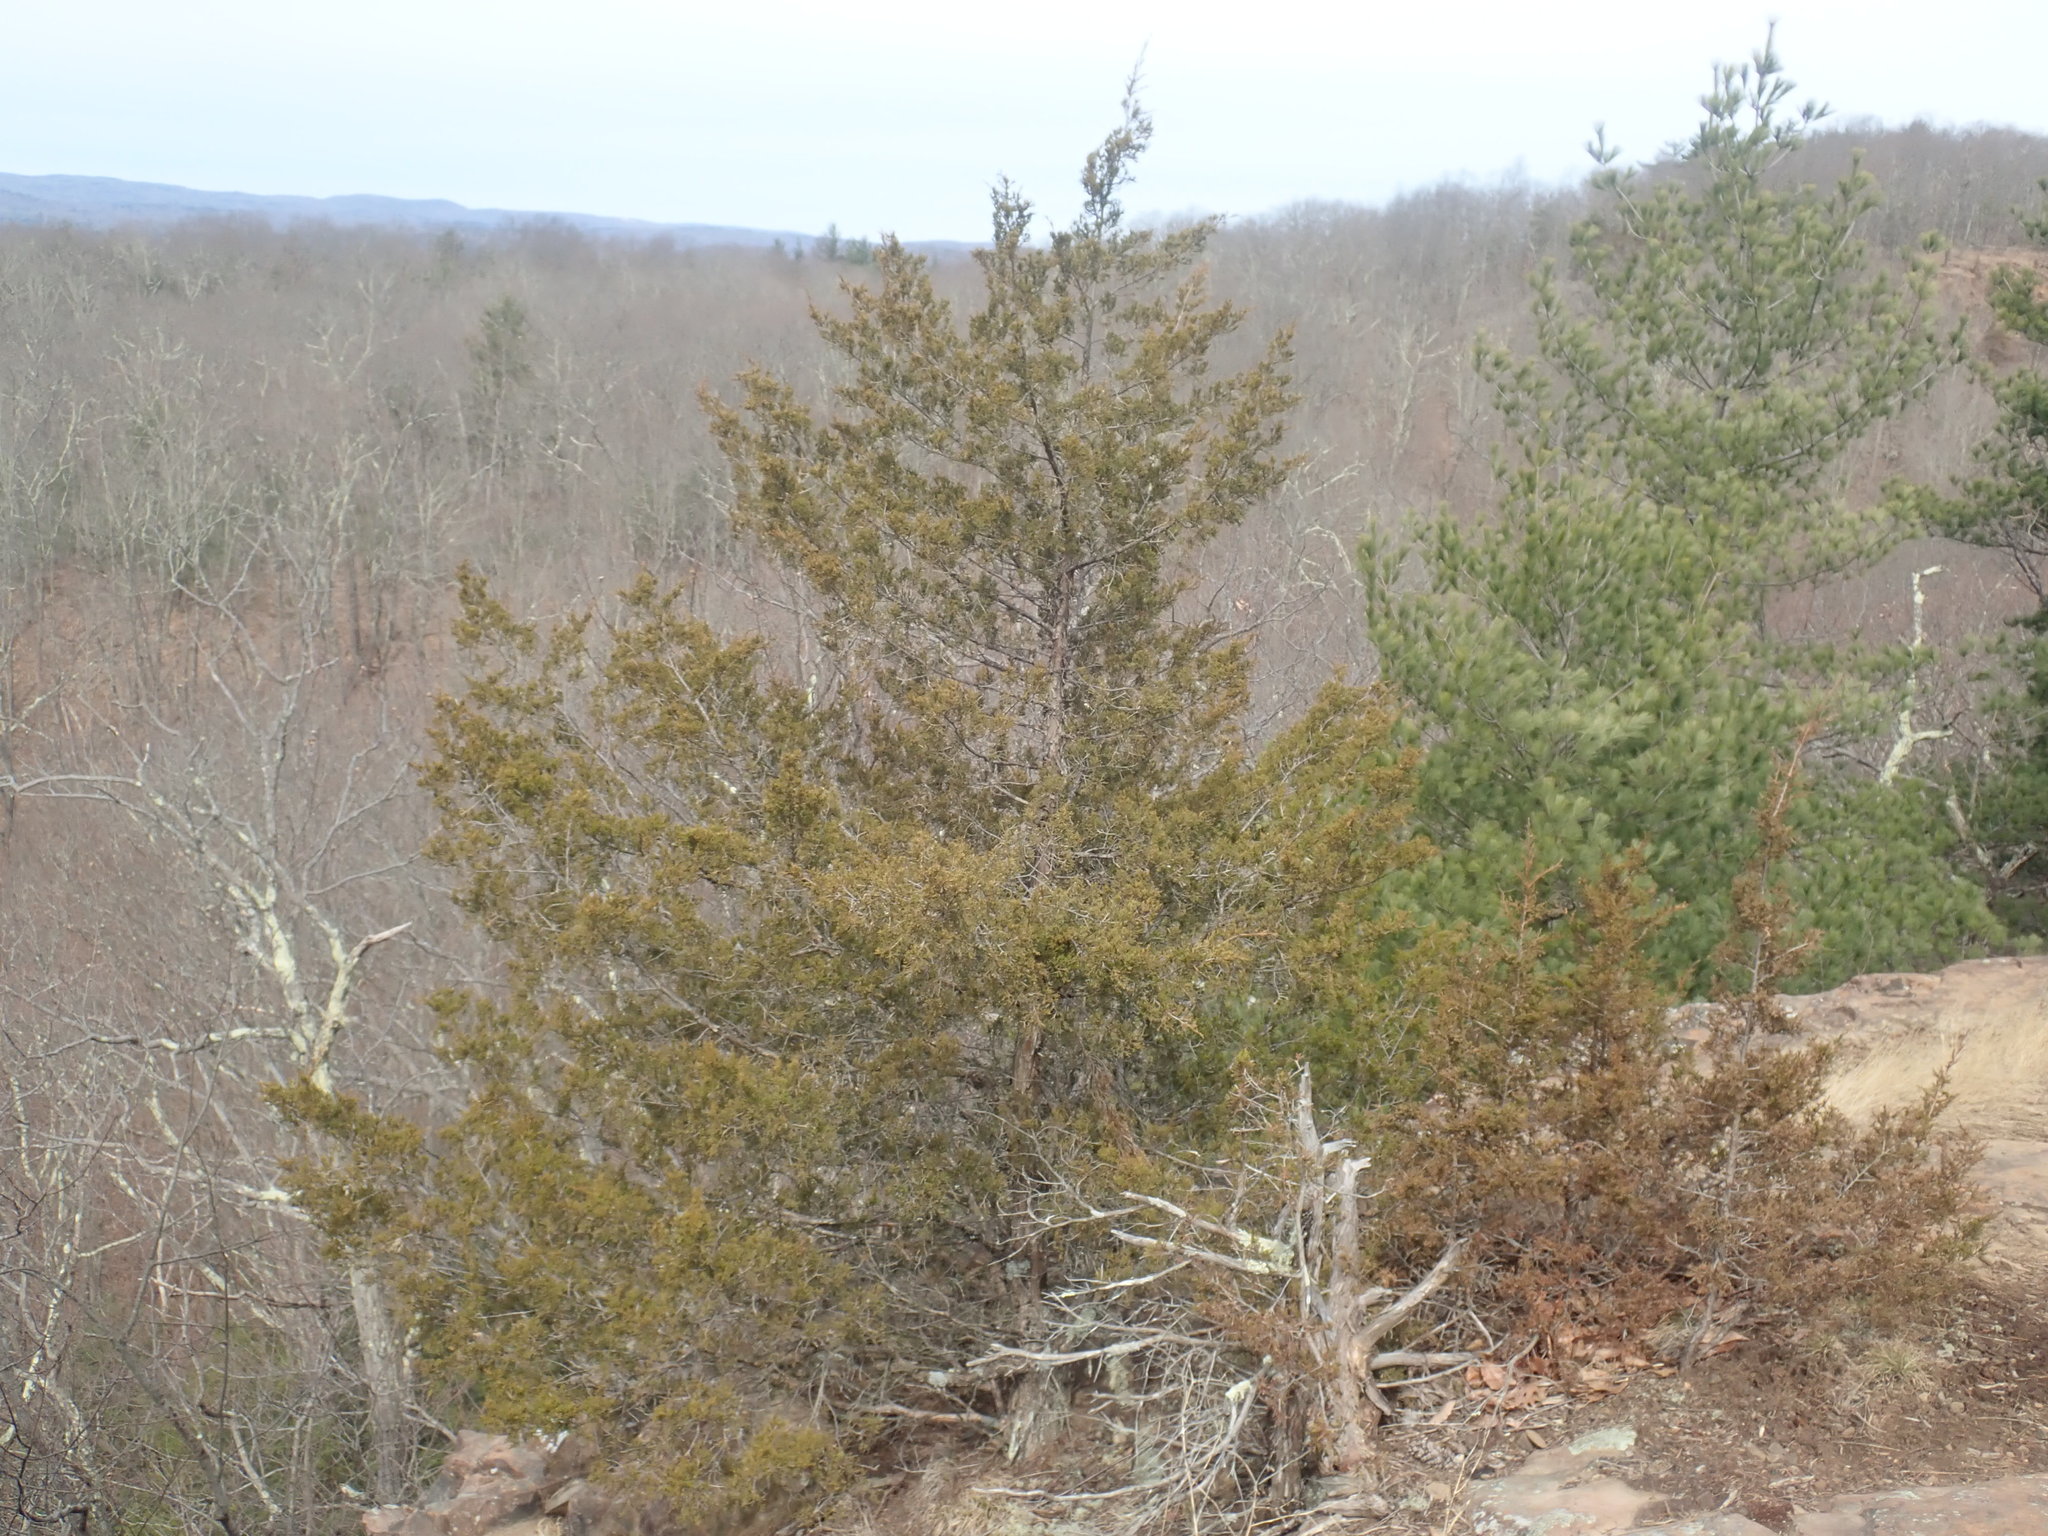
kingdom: Plantae
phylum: Tracheophyta
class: Pinopsida
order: Pinales
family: Cupressaceae
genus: Juniperus
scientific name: Juniperus virginiana
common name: Red juniper
